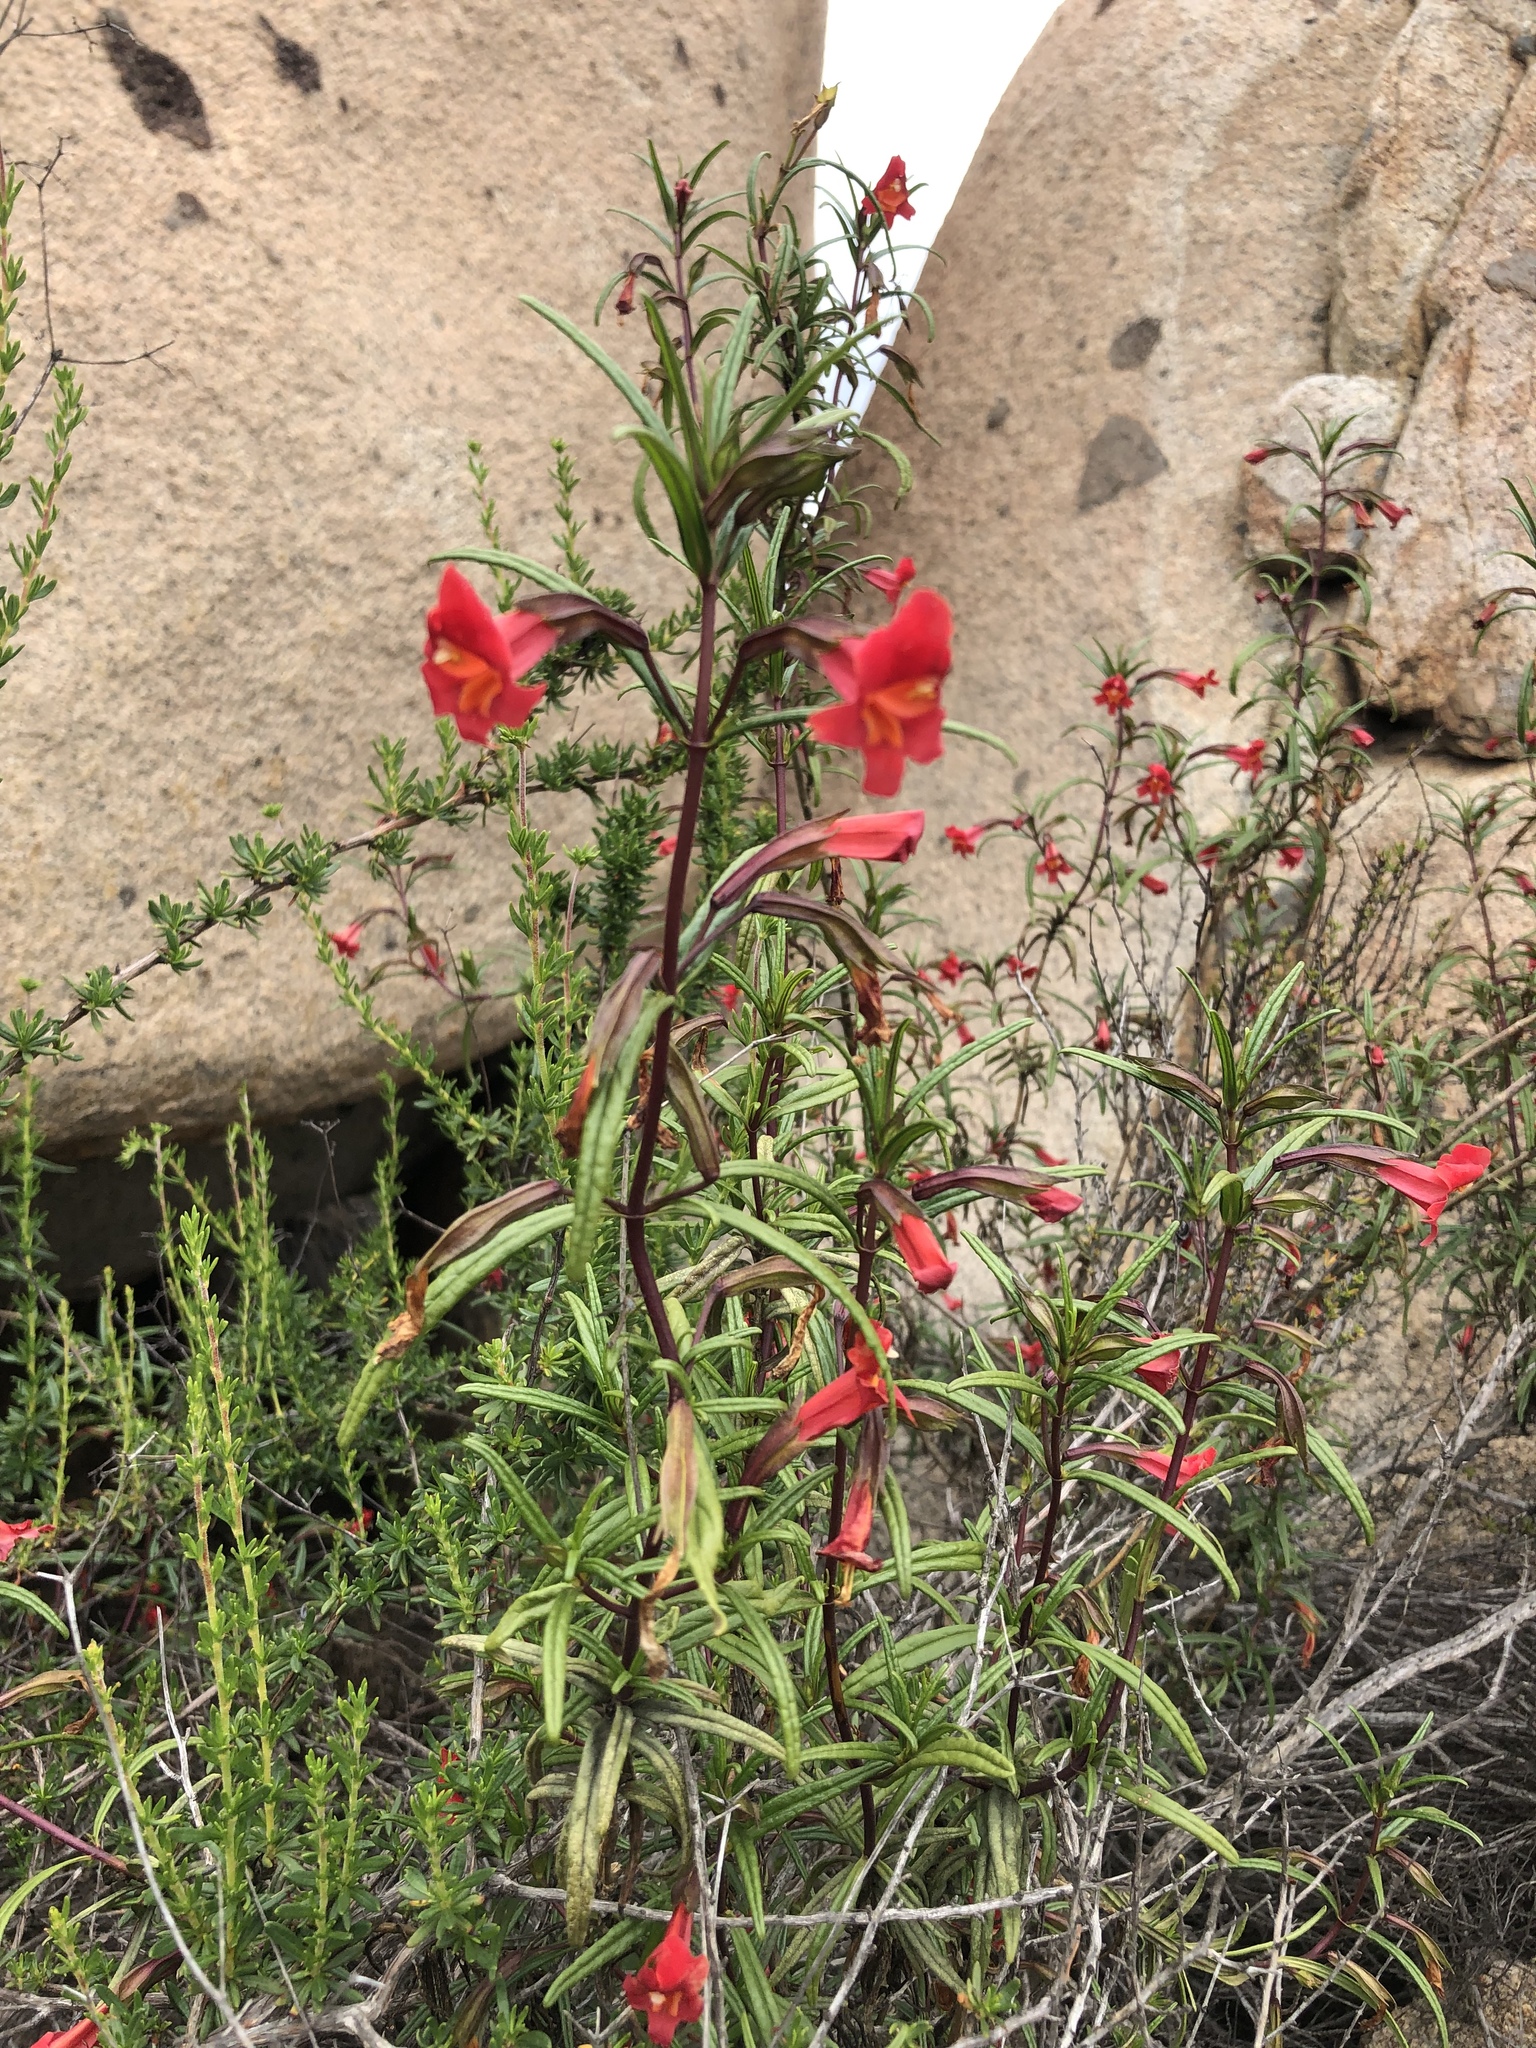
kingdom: Plantae
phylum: Tracheophyta
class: Magnoliopsida
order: Lamiales
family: Phrymaceae
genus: Diplacus
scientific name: Diplacus puniceus
